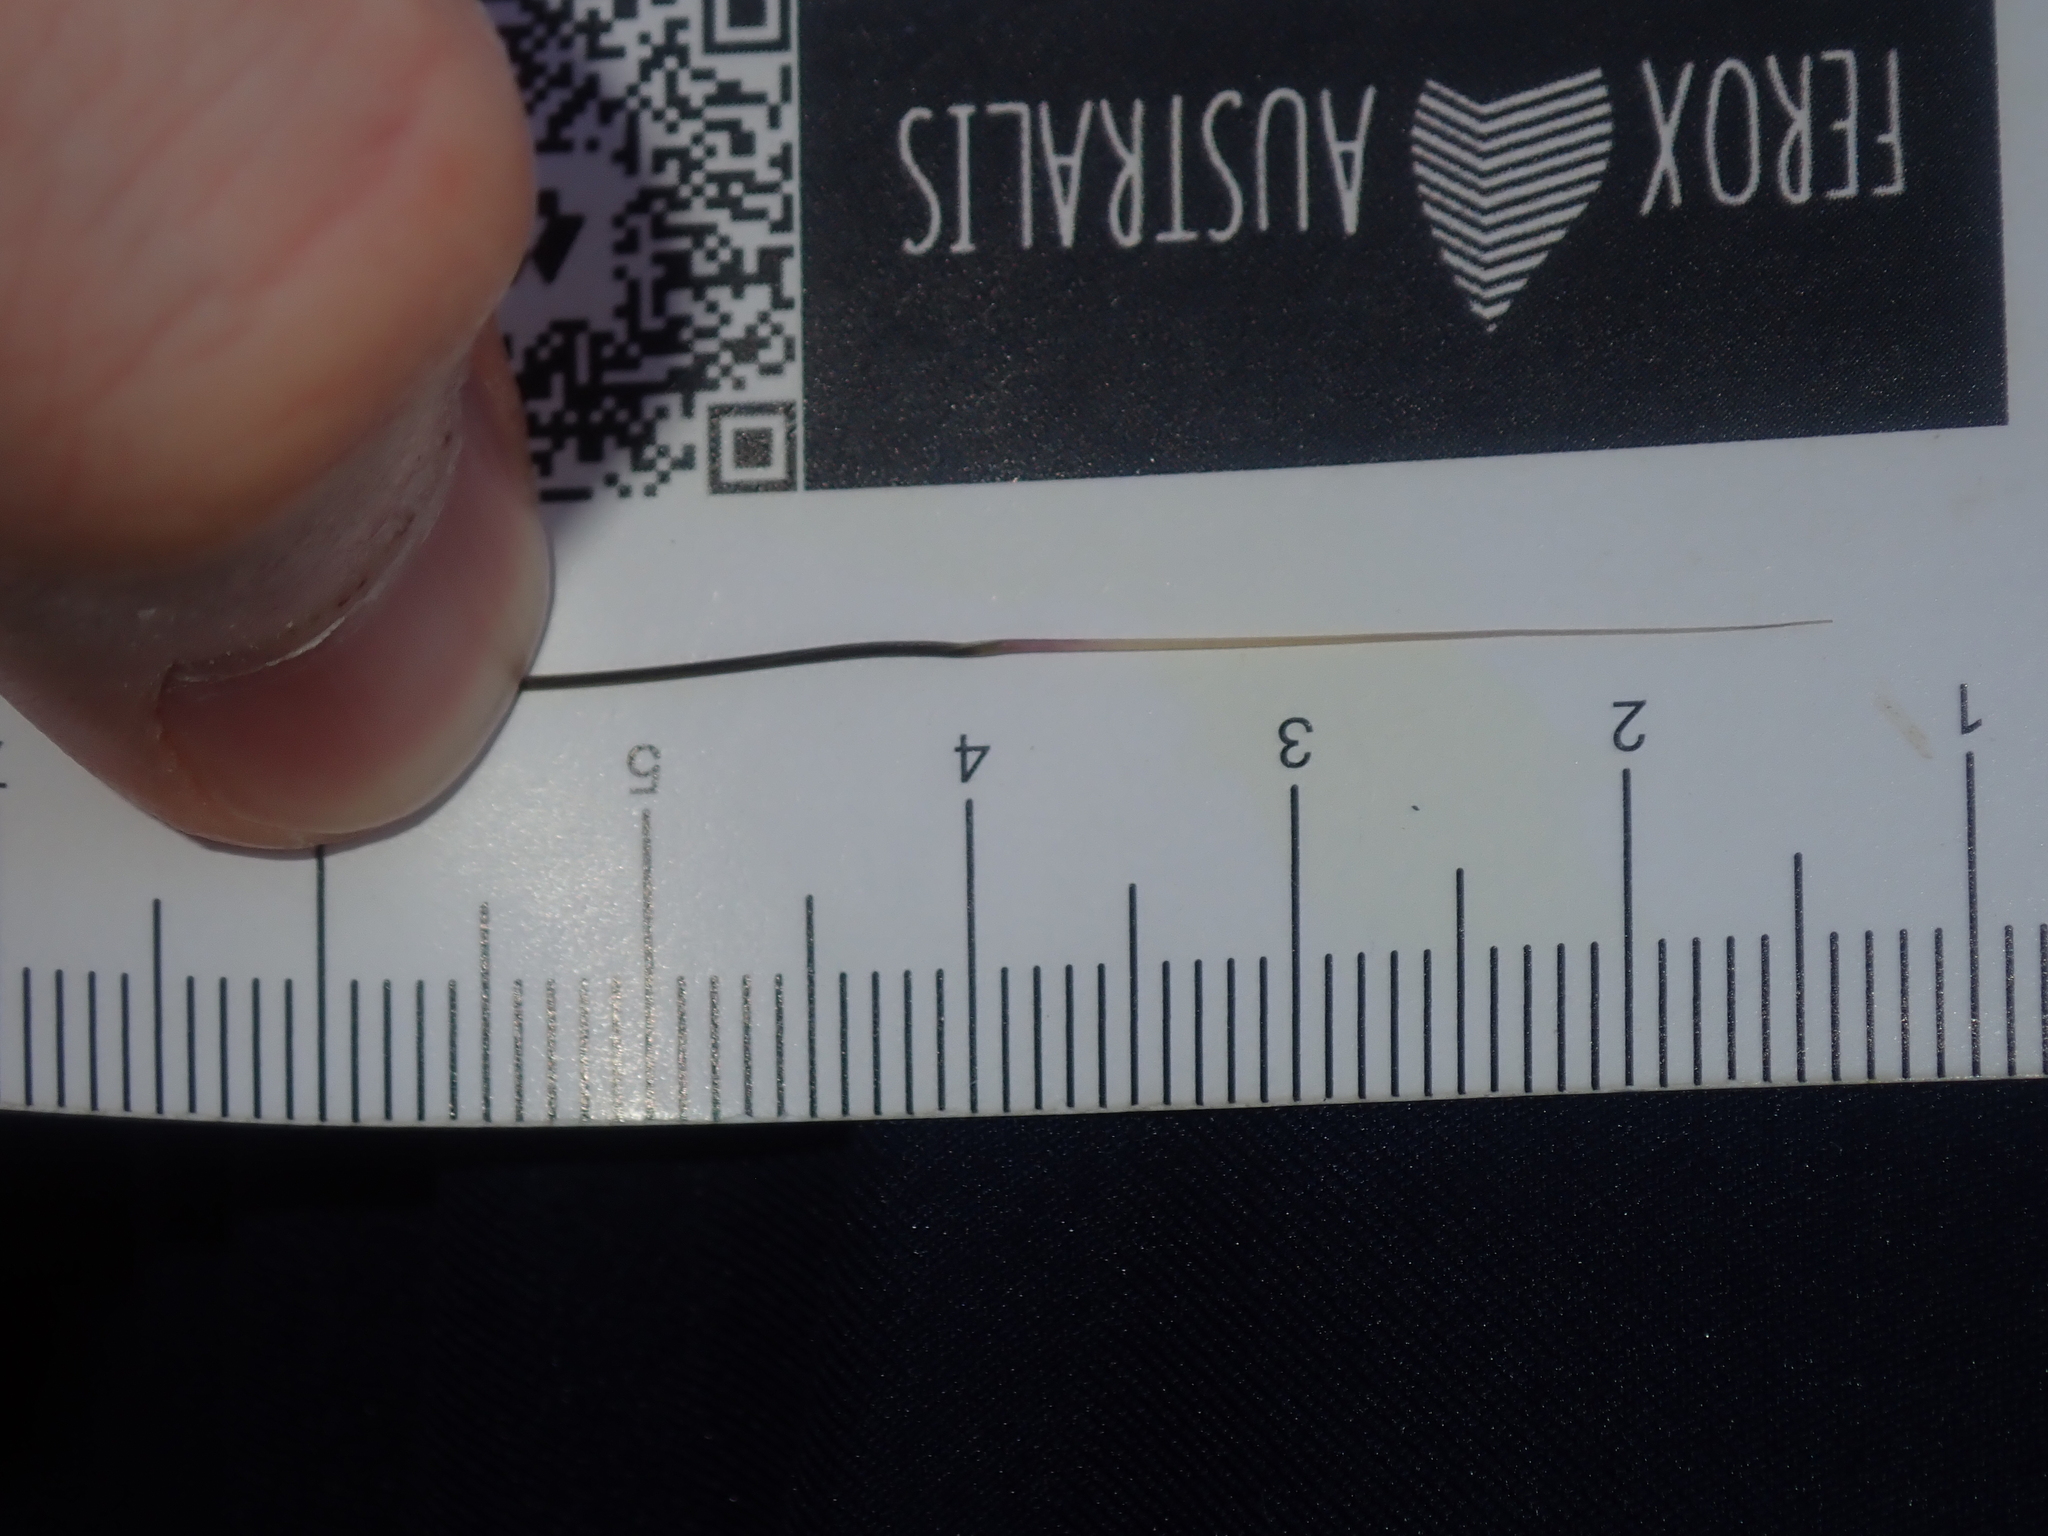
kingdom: Plantae
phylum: Tracheophyta
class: Liliopsida
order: Poales
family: Poaceae
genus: Avena
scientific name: Avena barbata
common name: Slender oat
